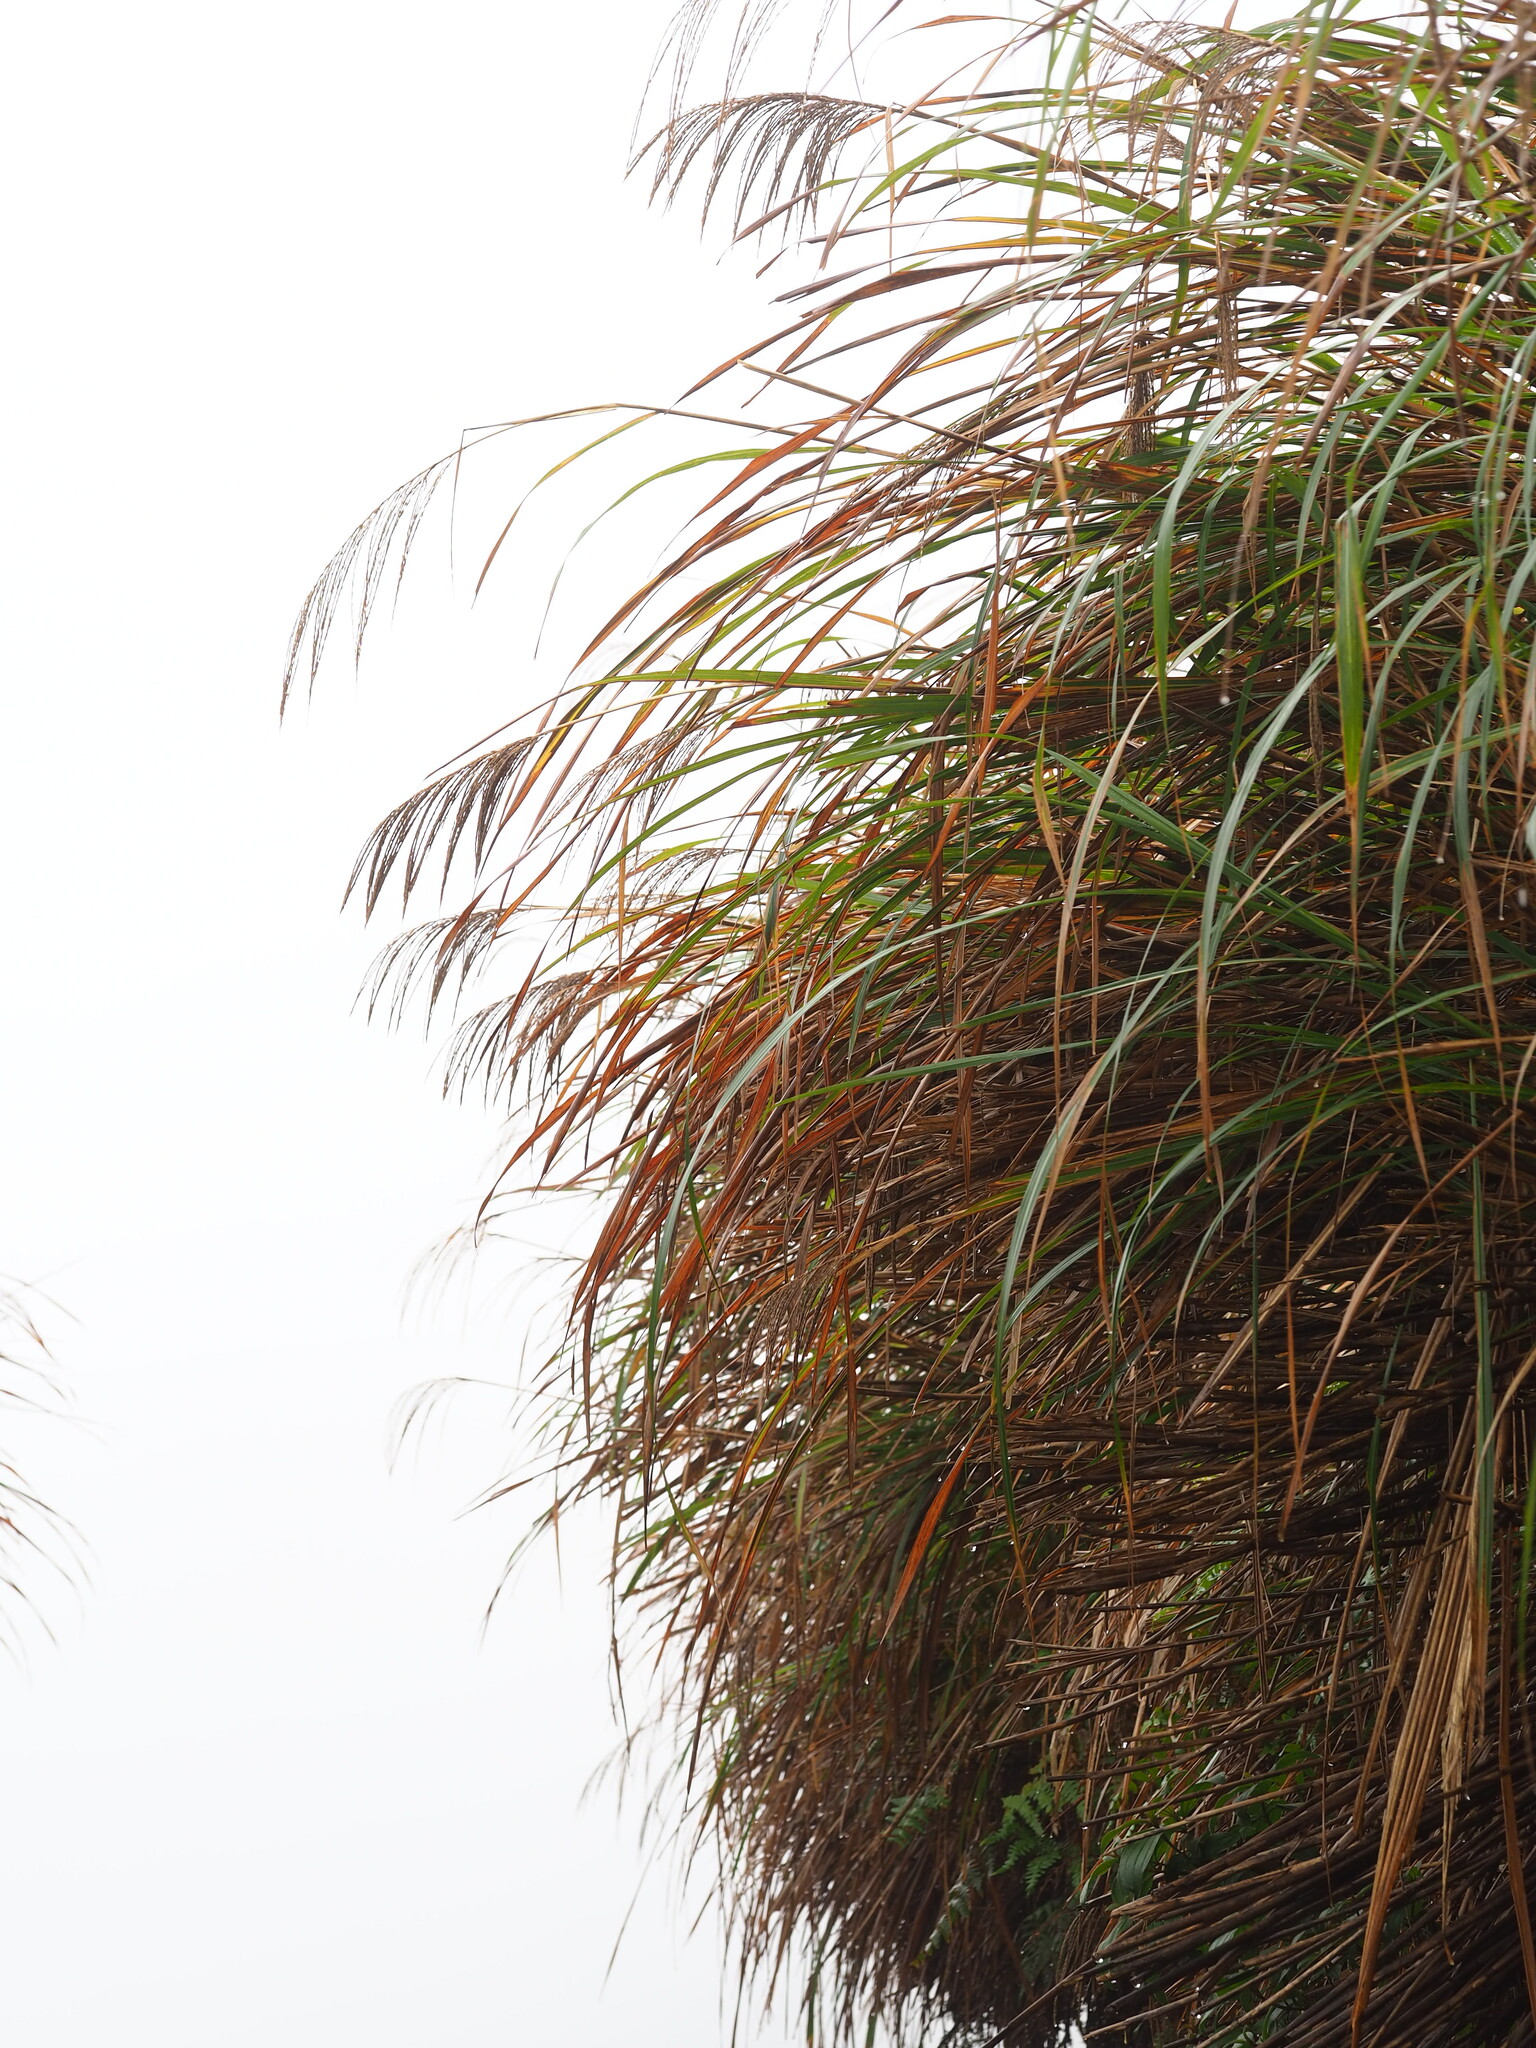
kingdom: Plantae
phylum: Tracheophyta
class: Liliopsida
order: Poales
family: Poaceae
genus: Miscanthus
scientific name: Miscanthus sinensis
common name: Chinese silvergrass
